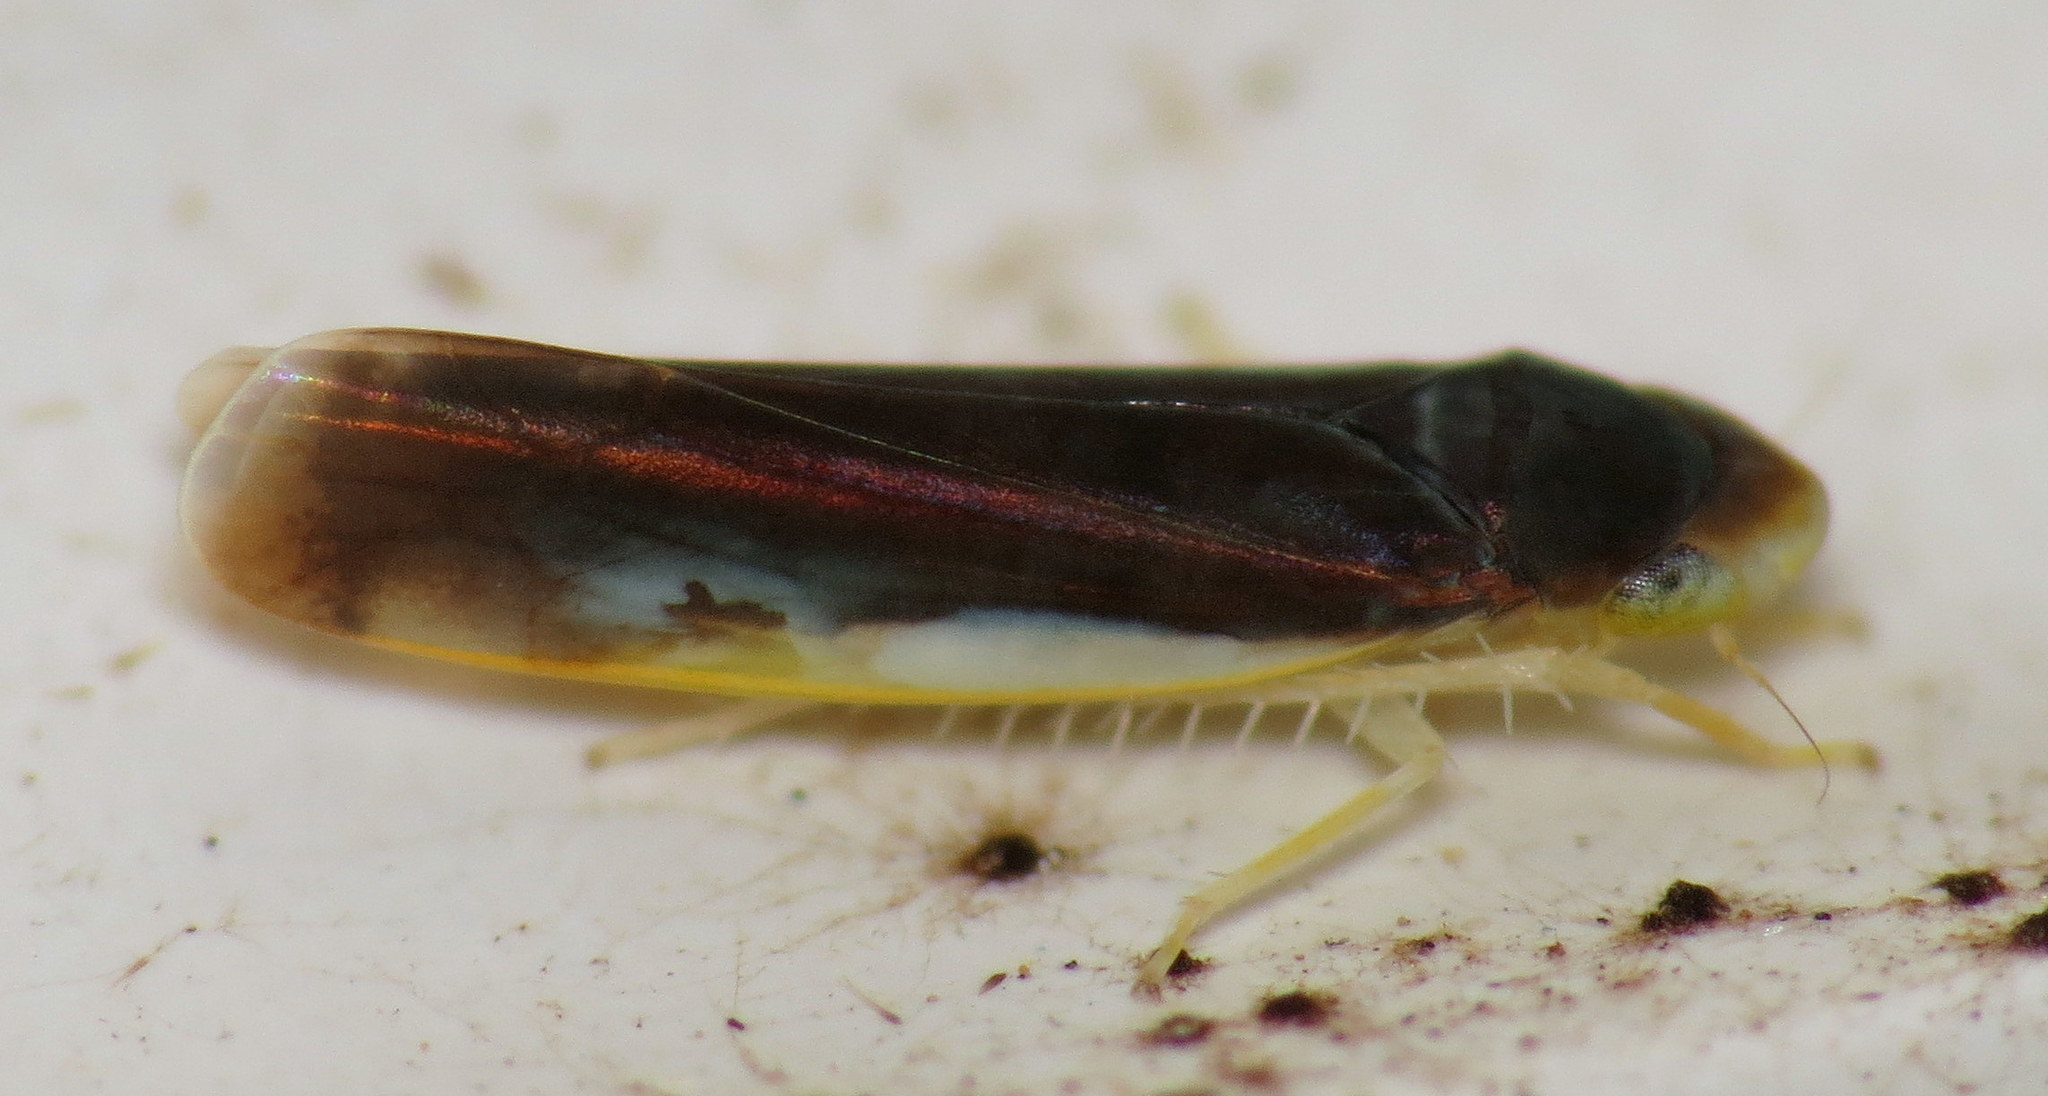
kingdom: Animalia
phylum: Arthropoda
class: Insecta
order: Hemiptera
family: Cicadellidae
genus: Eupteryx
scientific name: Eupteryx nigra
